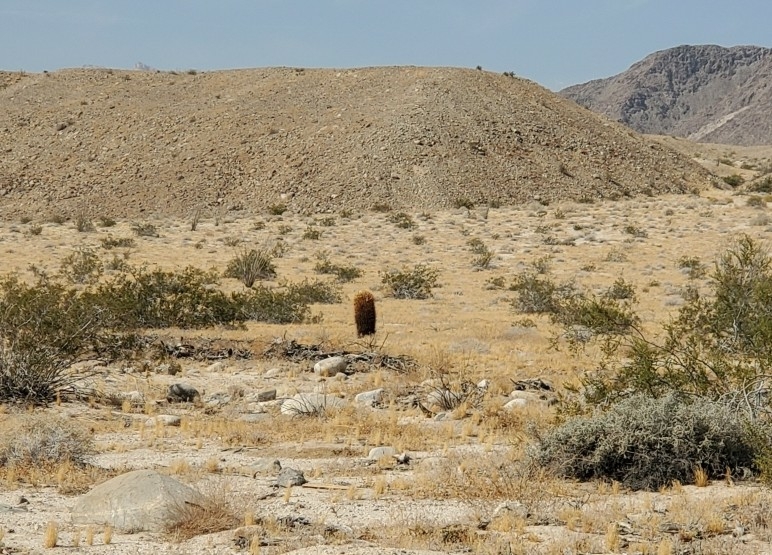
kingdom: Plantae
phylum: Tracheophyta
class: Magnoliopsida
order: Caryophyllales
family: Cactaceae
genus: Ferocactus
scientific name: Ferocactus cylindraceus
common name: California barrel cactus
